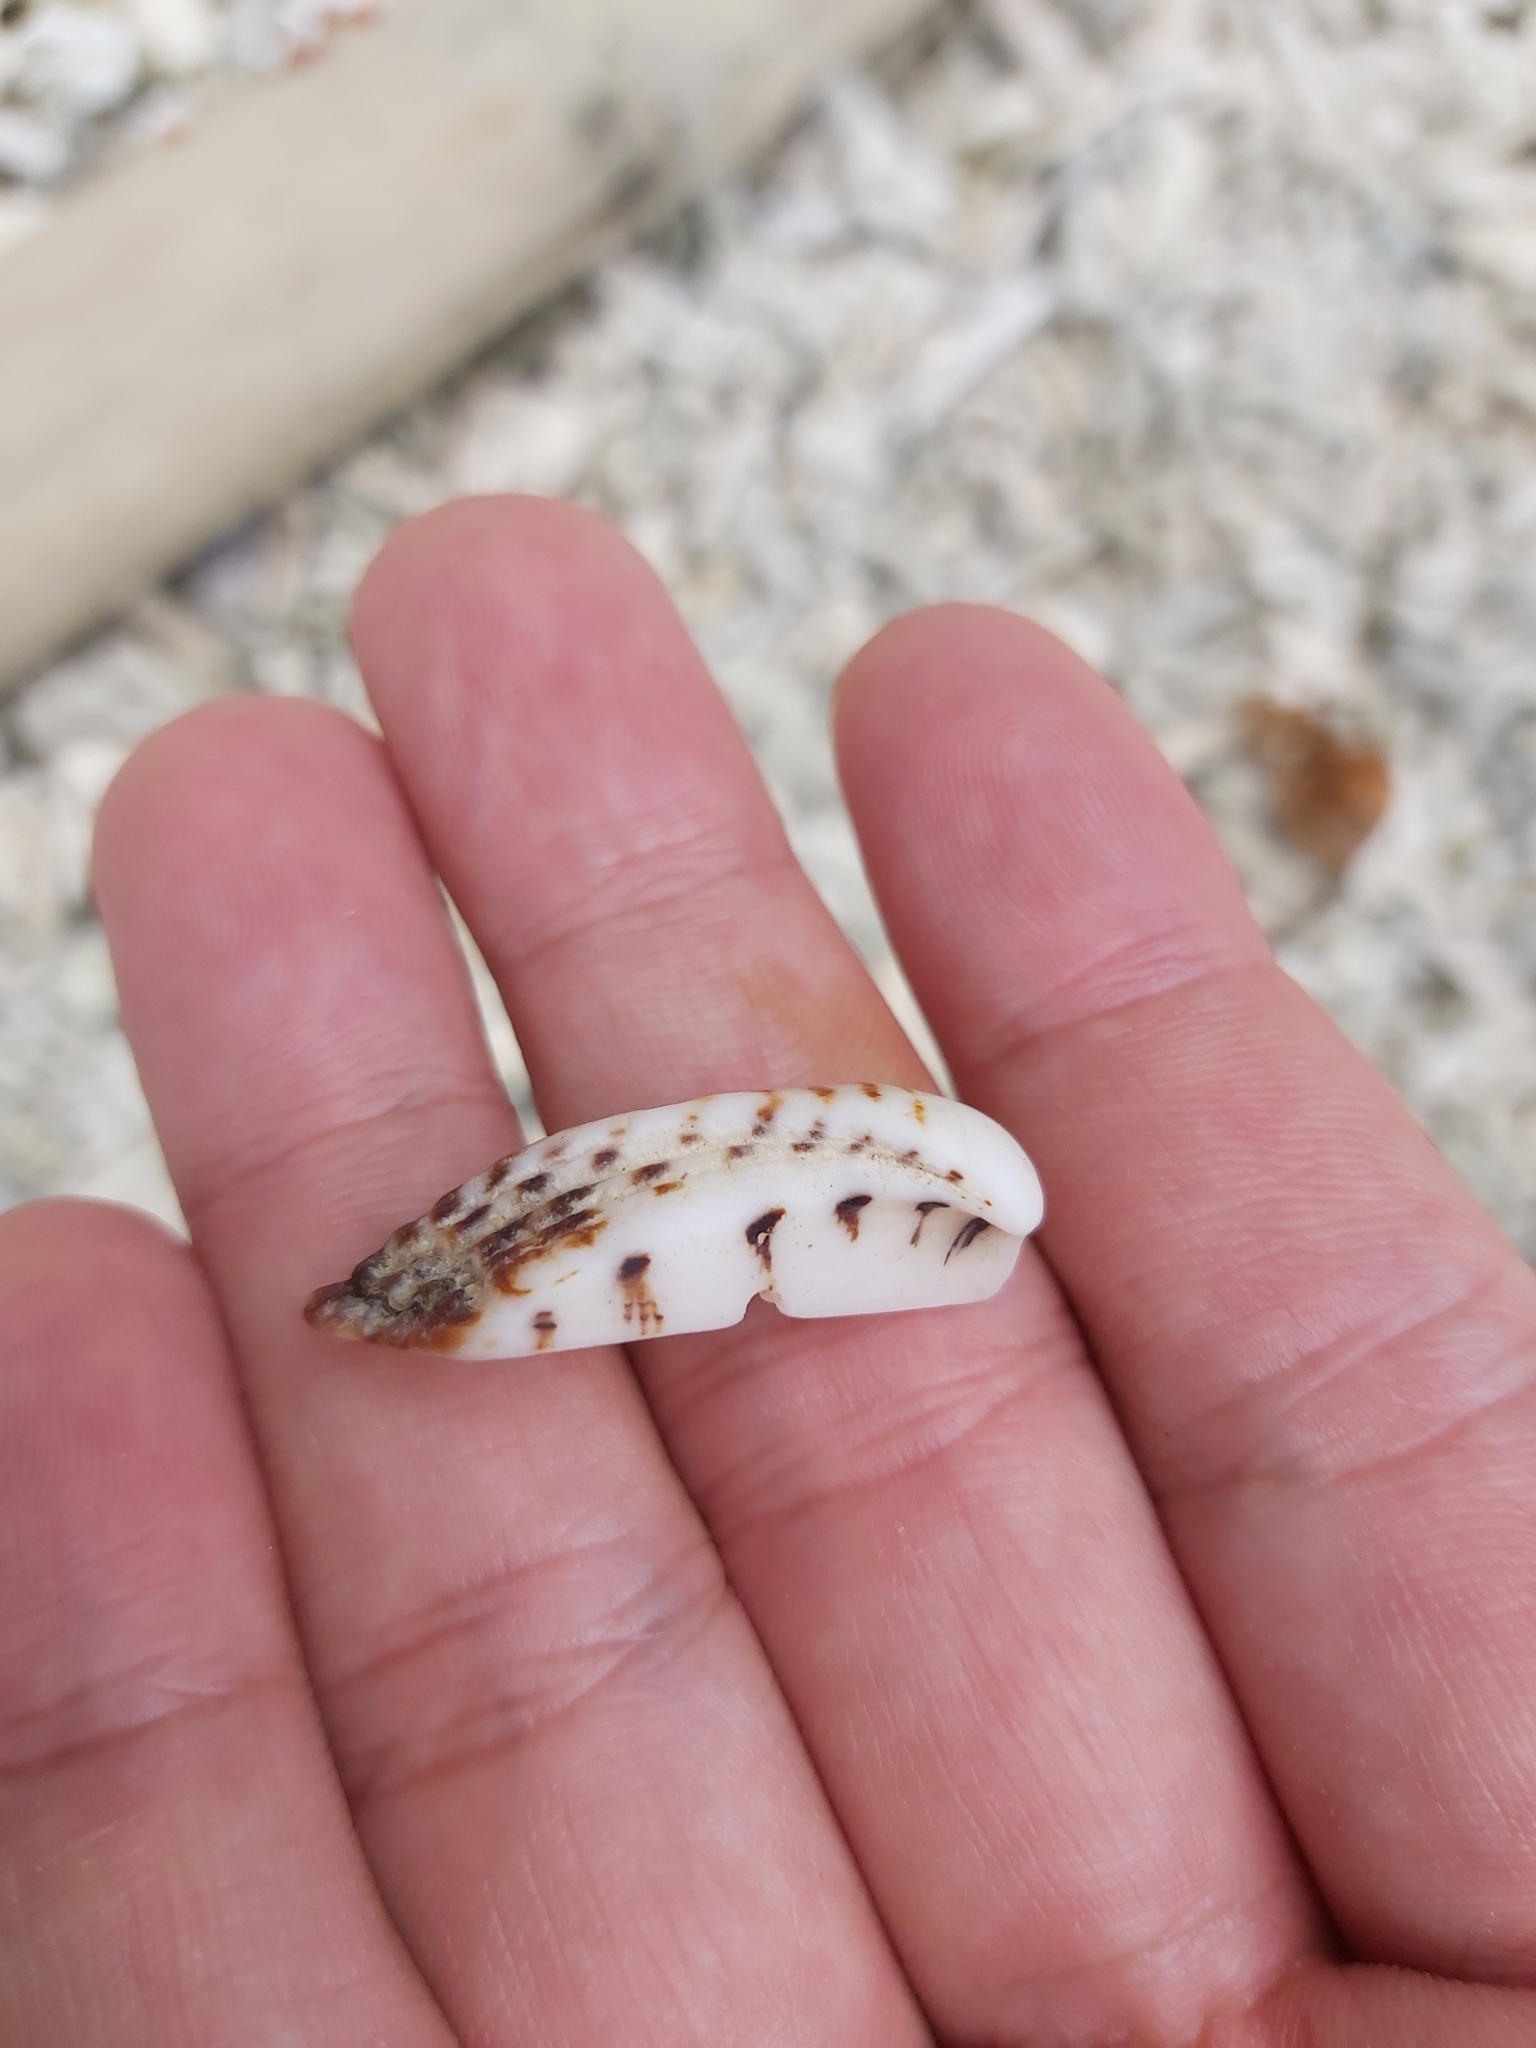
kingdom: Animalia
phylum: Mollusca
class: Bivalvia
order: Arcida
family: Arcidae
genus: Lamarcka
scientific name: Lamarcka ventricosa
